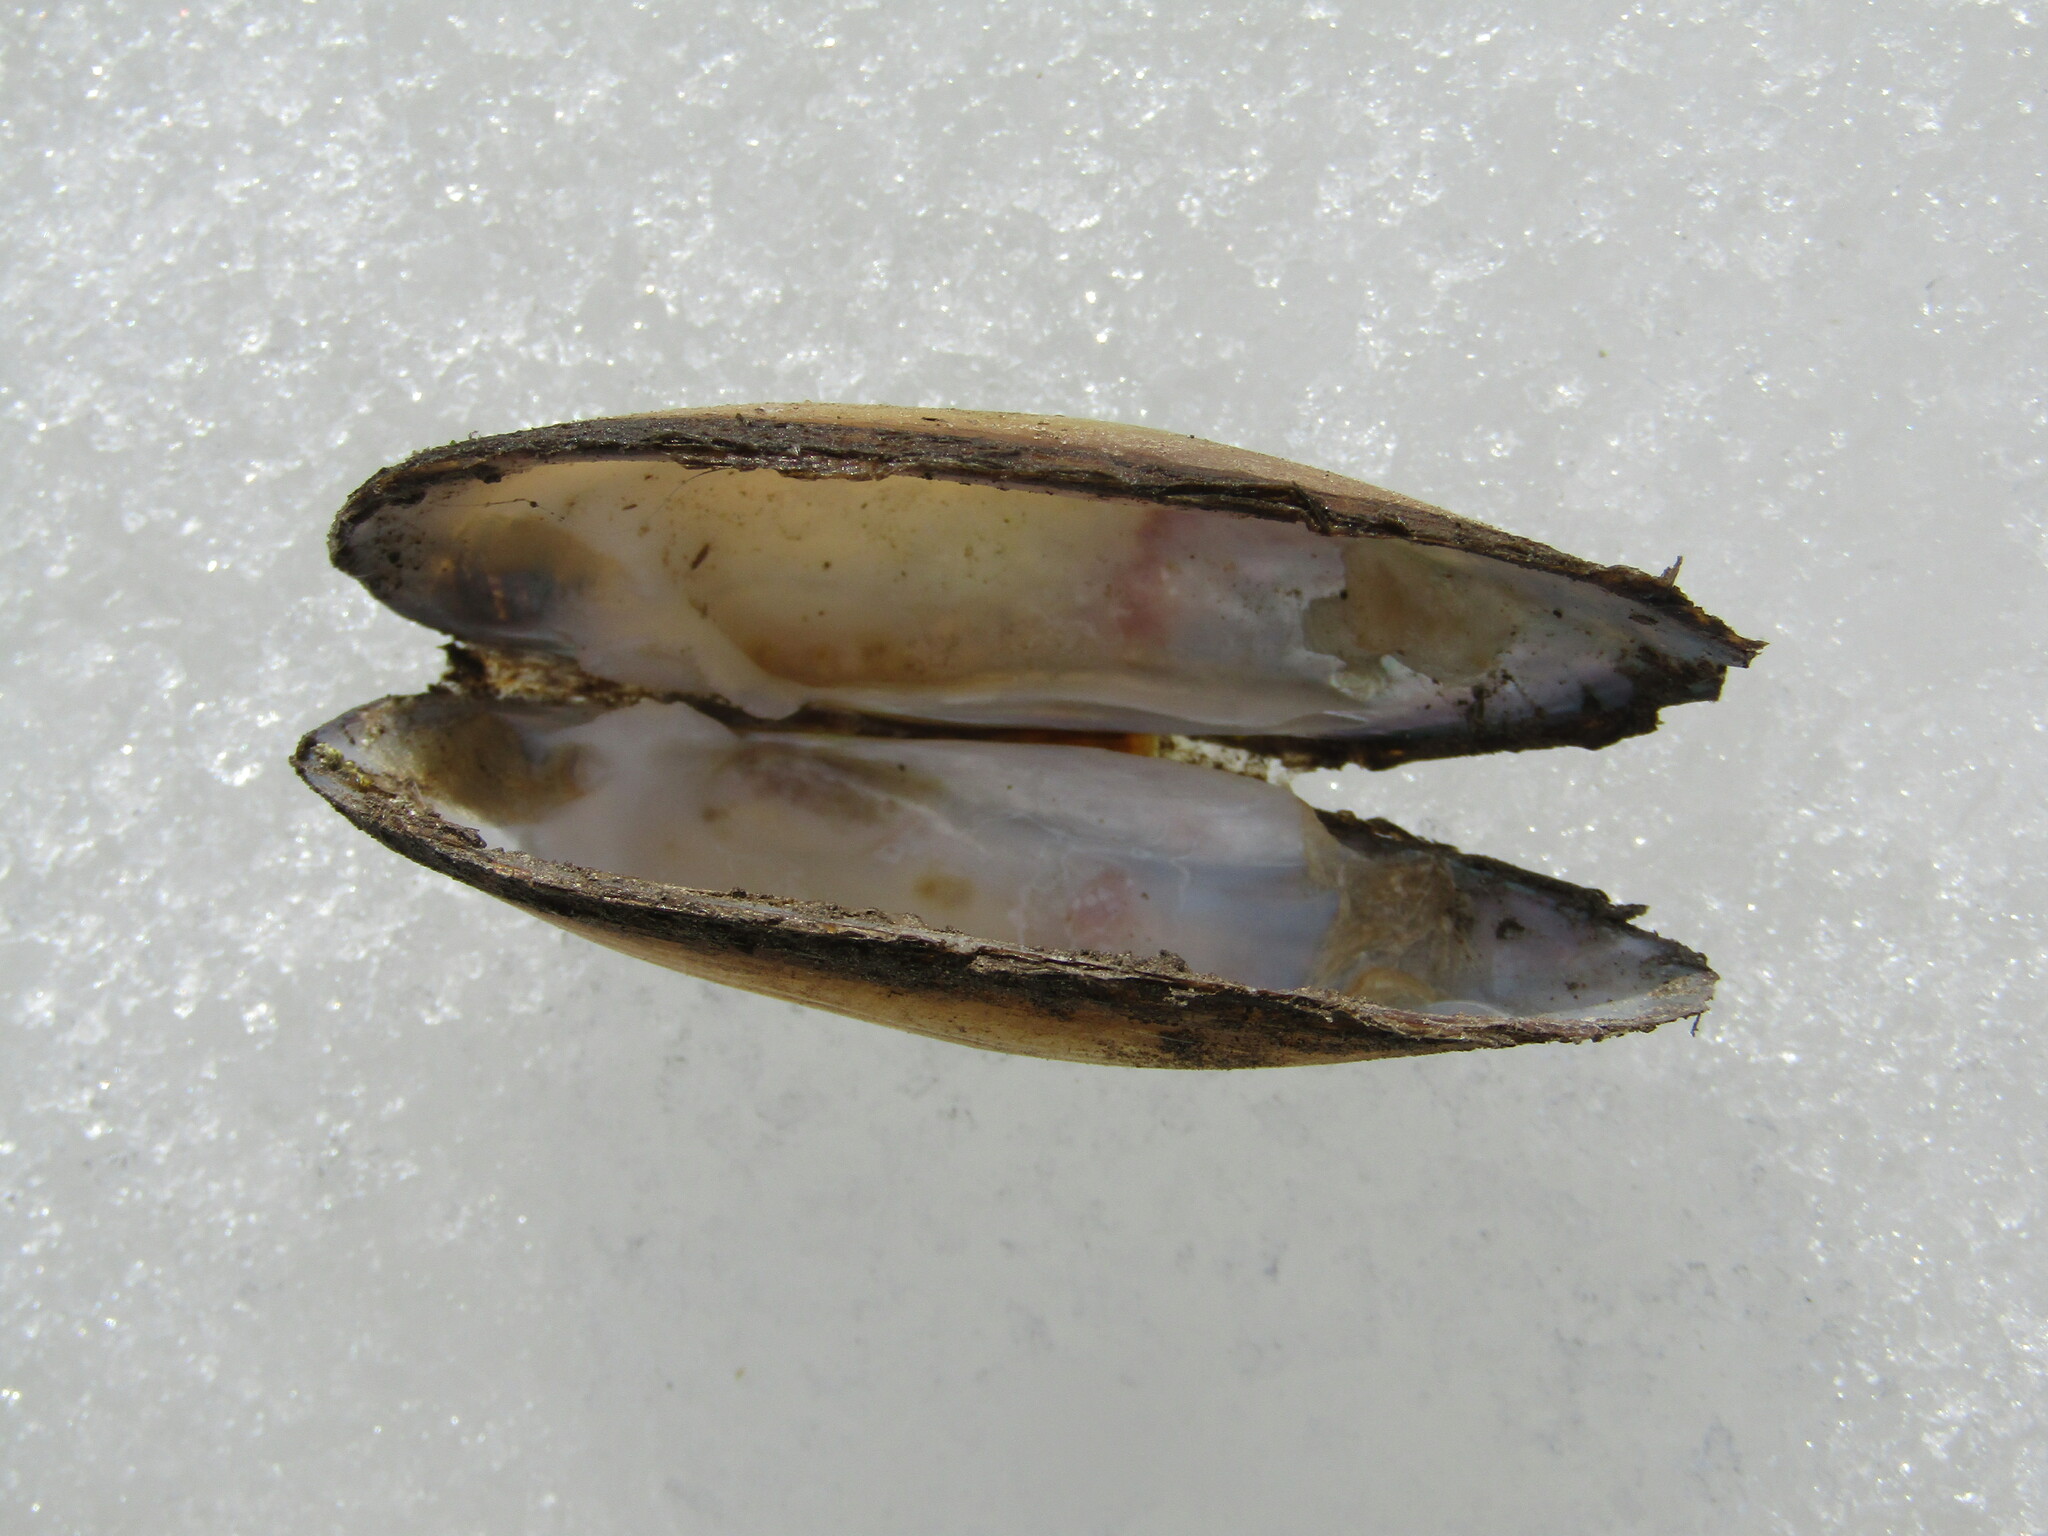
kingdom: Animalia
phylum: Mollusca
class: Bivalvia
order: Unionida
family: Unionidae
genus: Unio
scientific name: Unio pictorum
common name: Painter's mussel
